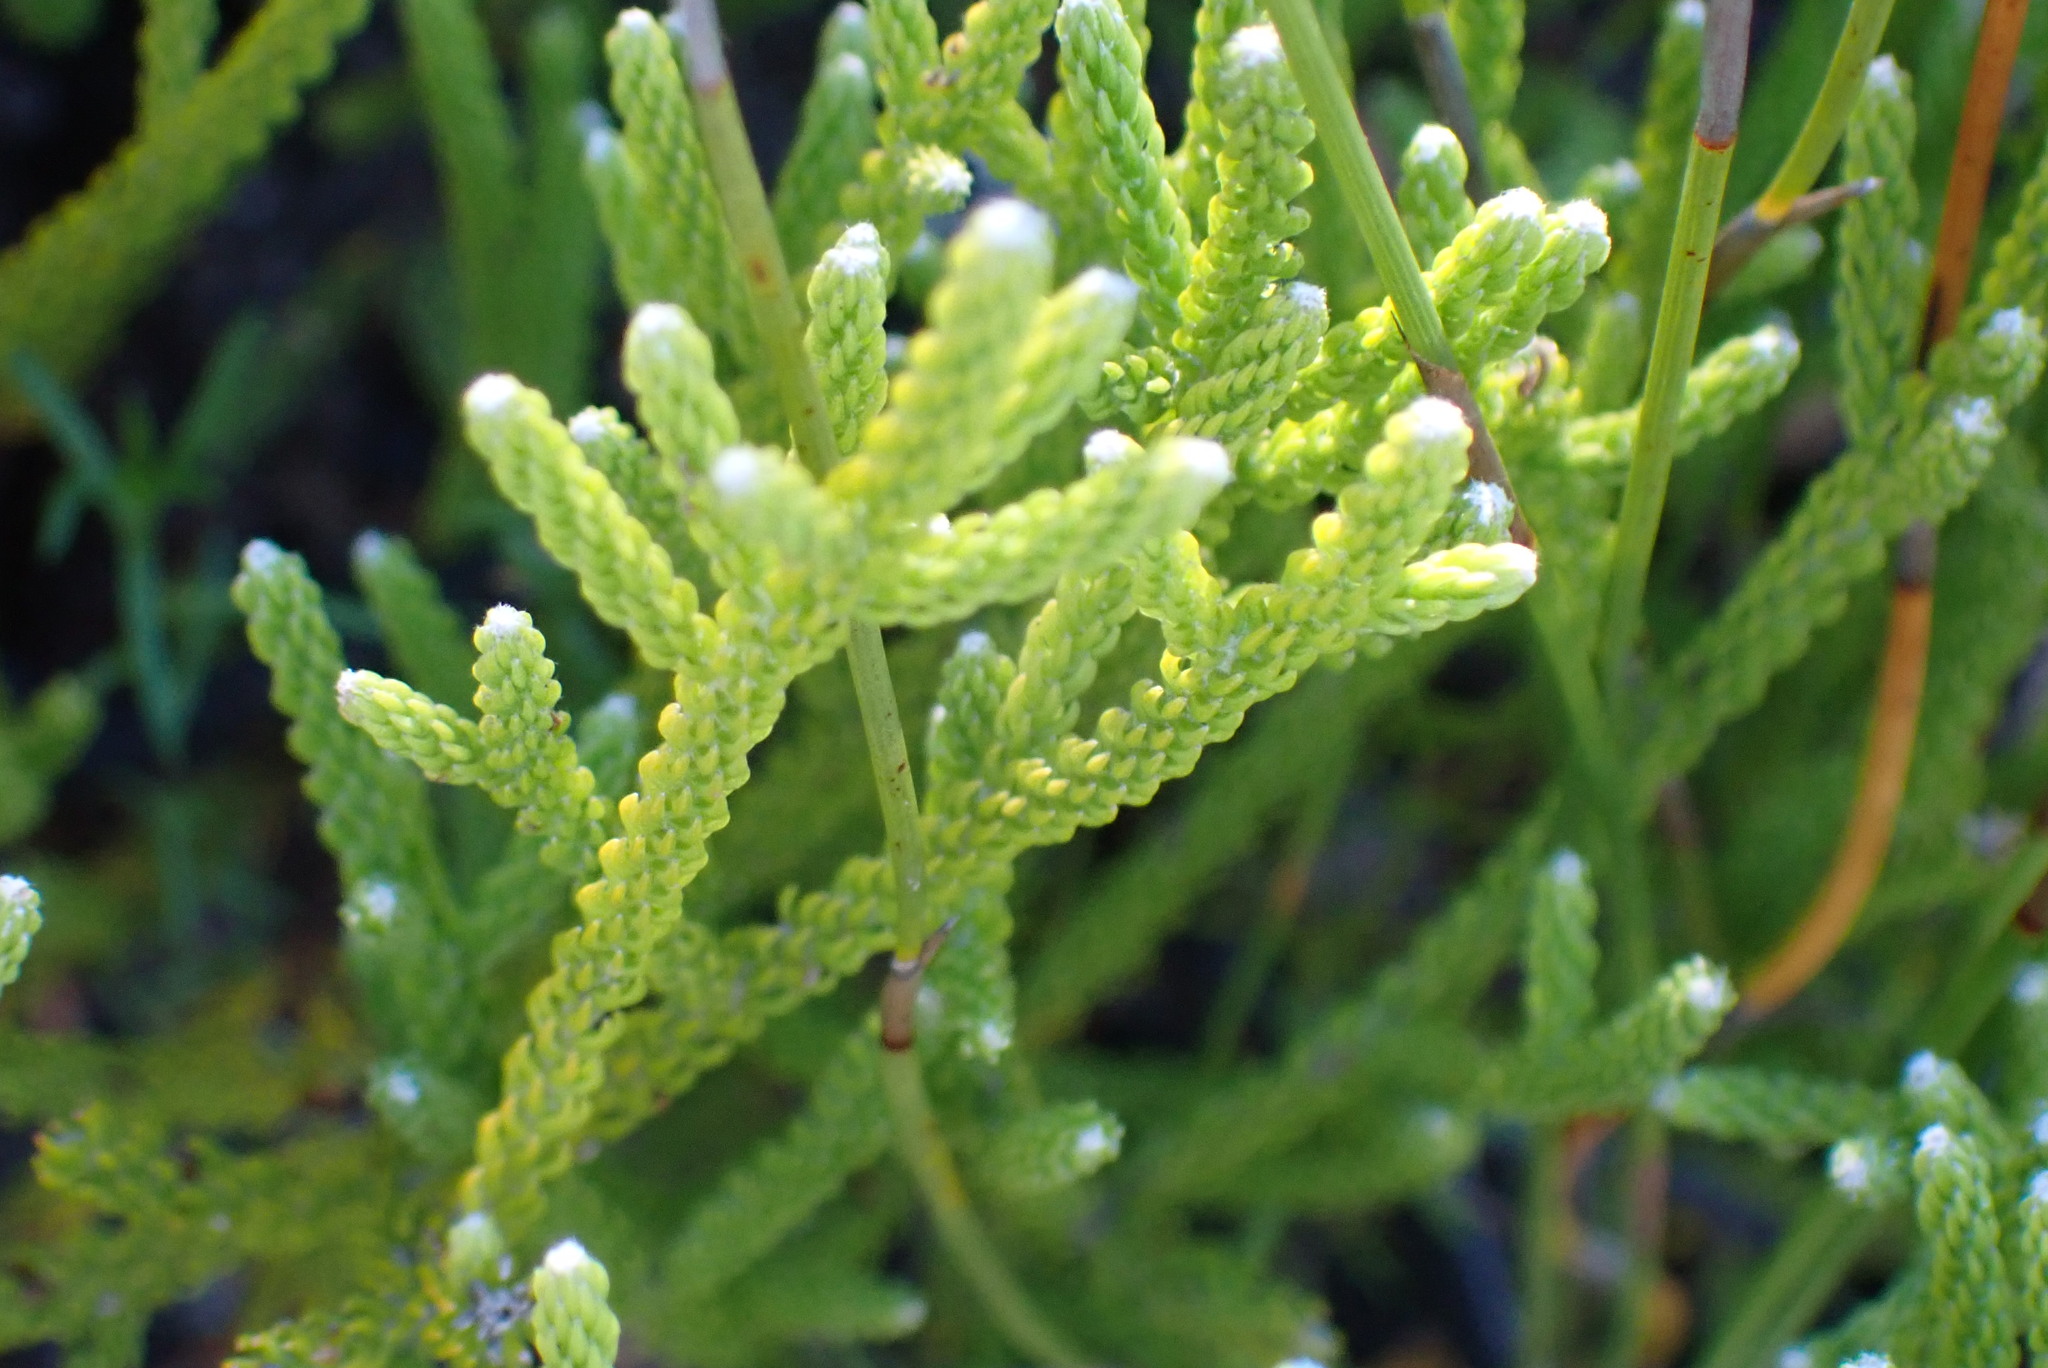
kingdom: Plantae
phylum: Tracheophyta
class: Magnoliopsida
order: Bruniales
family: Bruniaceae
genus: Brunia
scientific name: Brunia noduliflora
